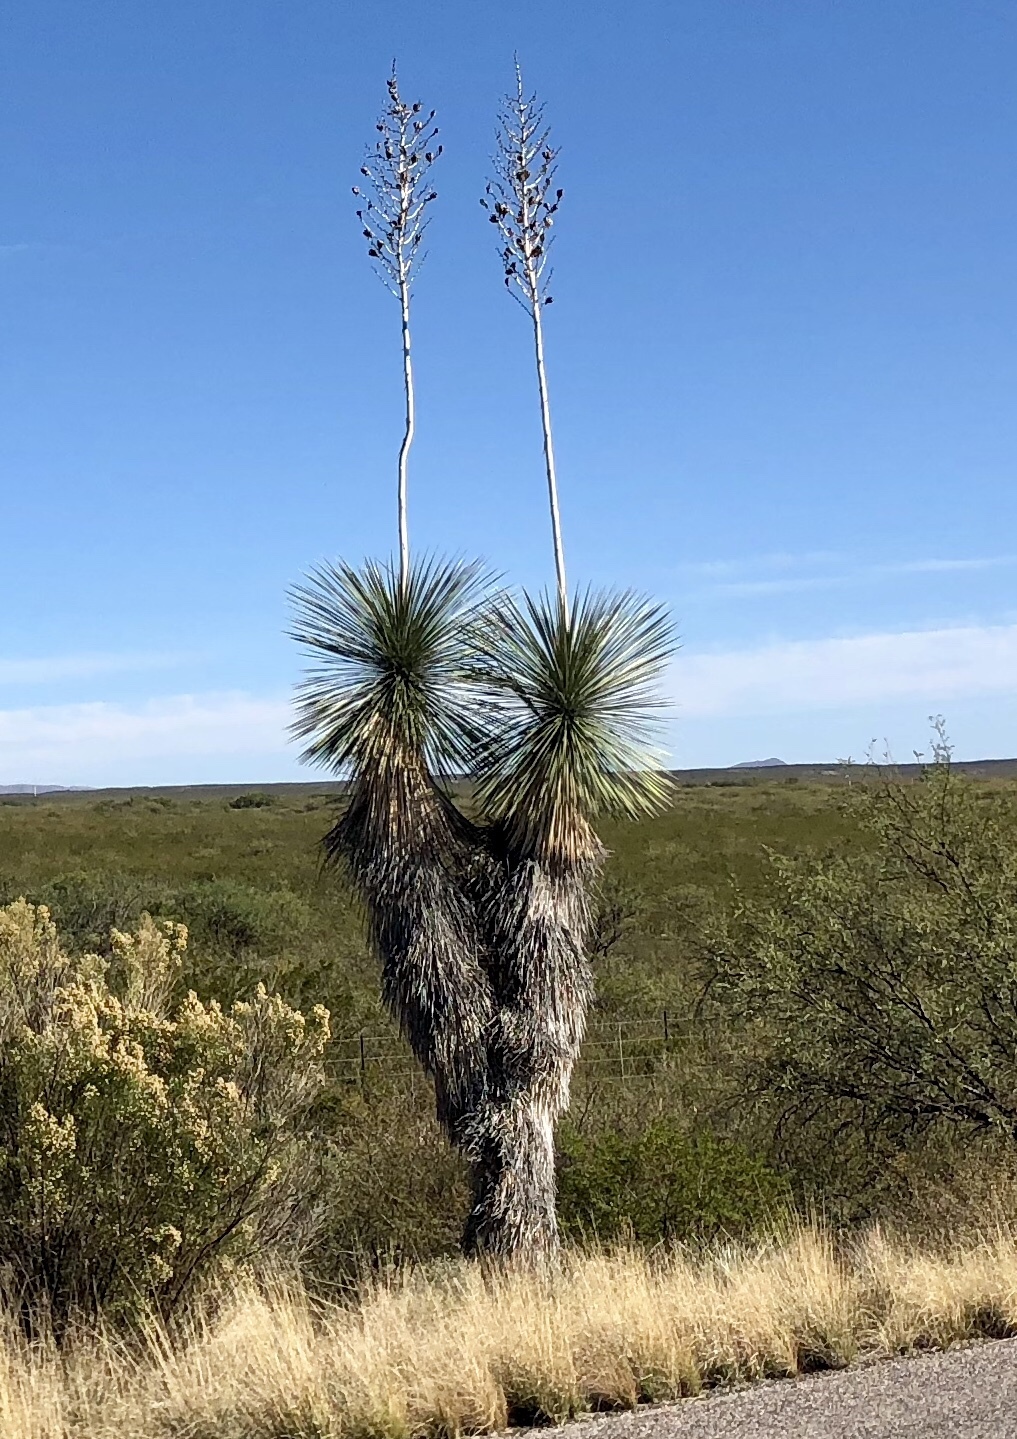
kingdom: Plantae
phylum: Tracheophyta
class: Liliopsida
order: Asparagales
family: Asparagaceae
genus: Yucca
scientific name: Yucca elata
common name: Palmella
